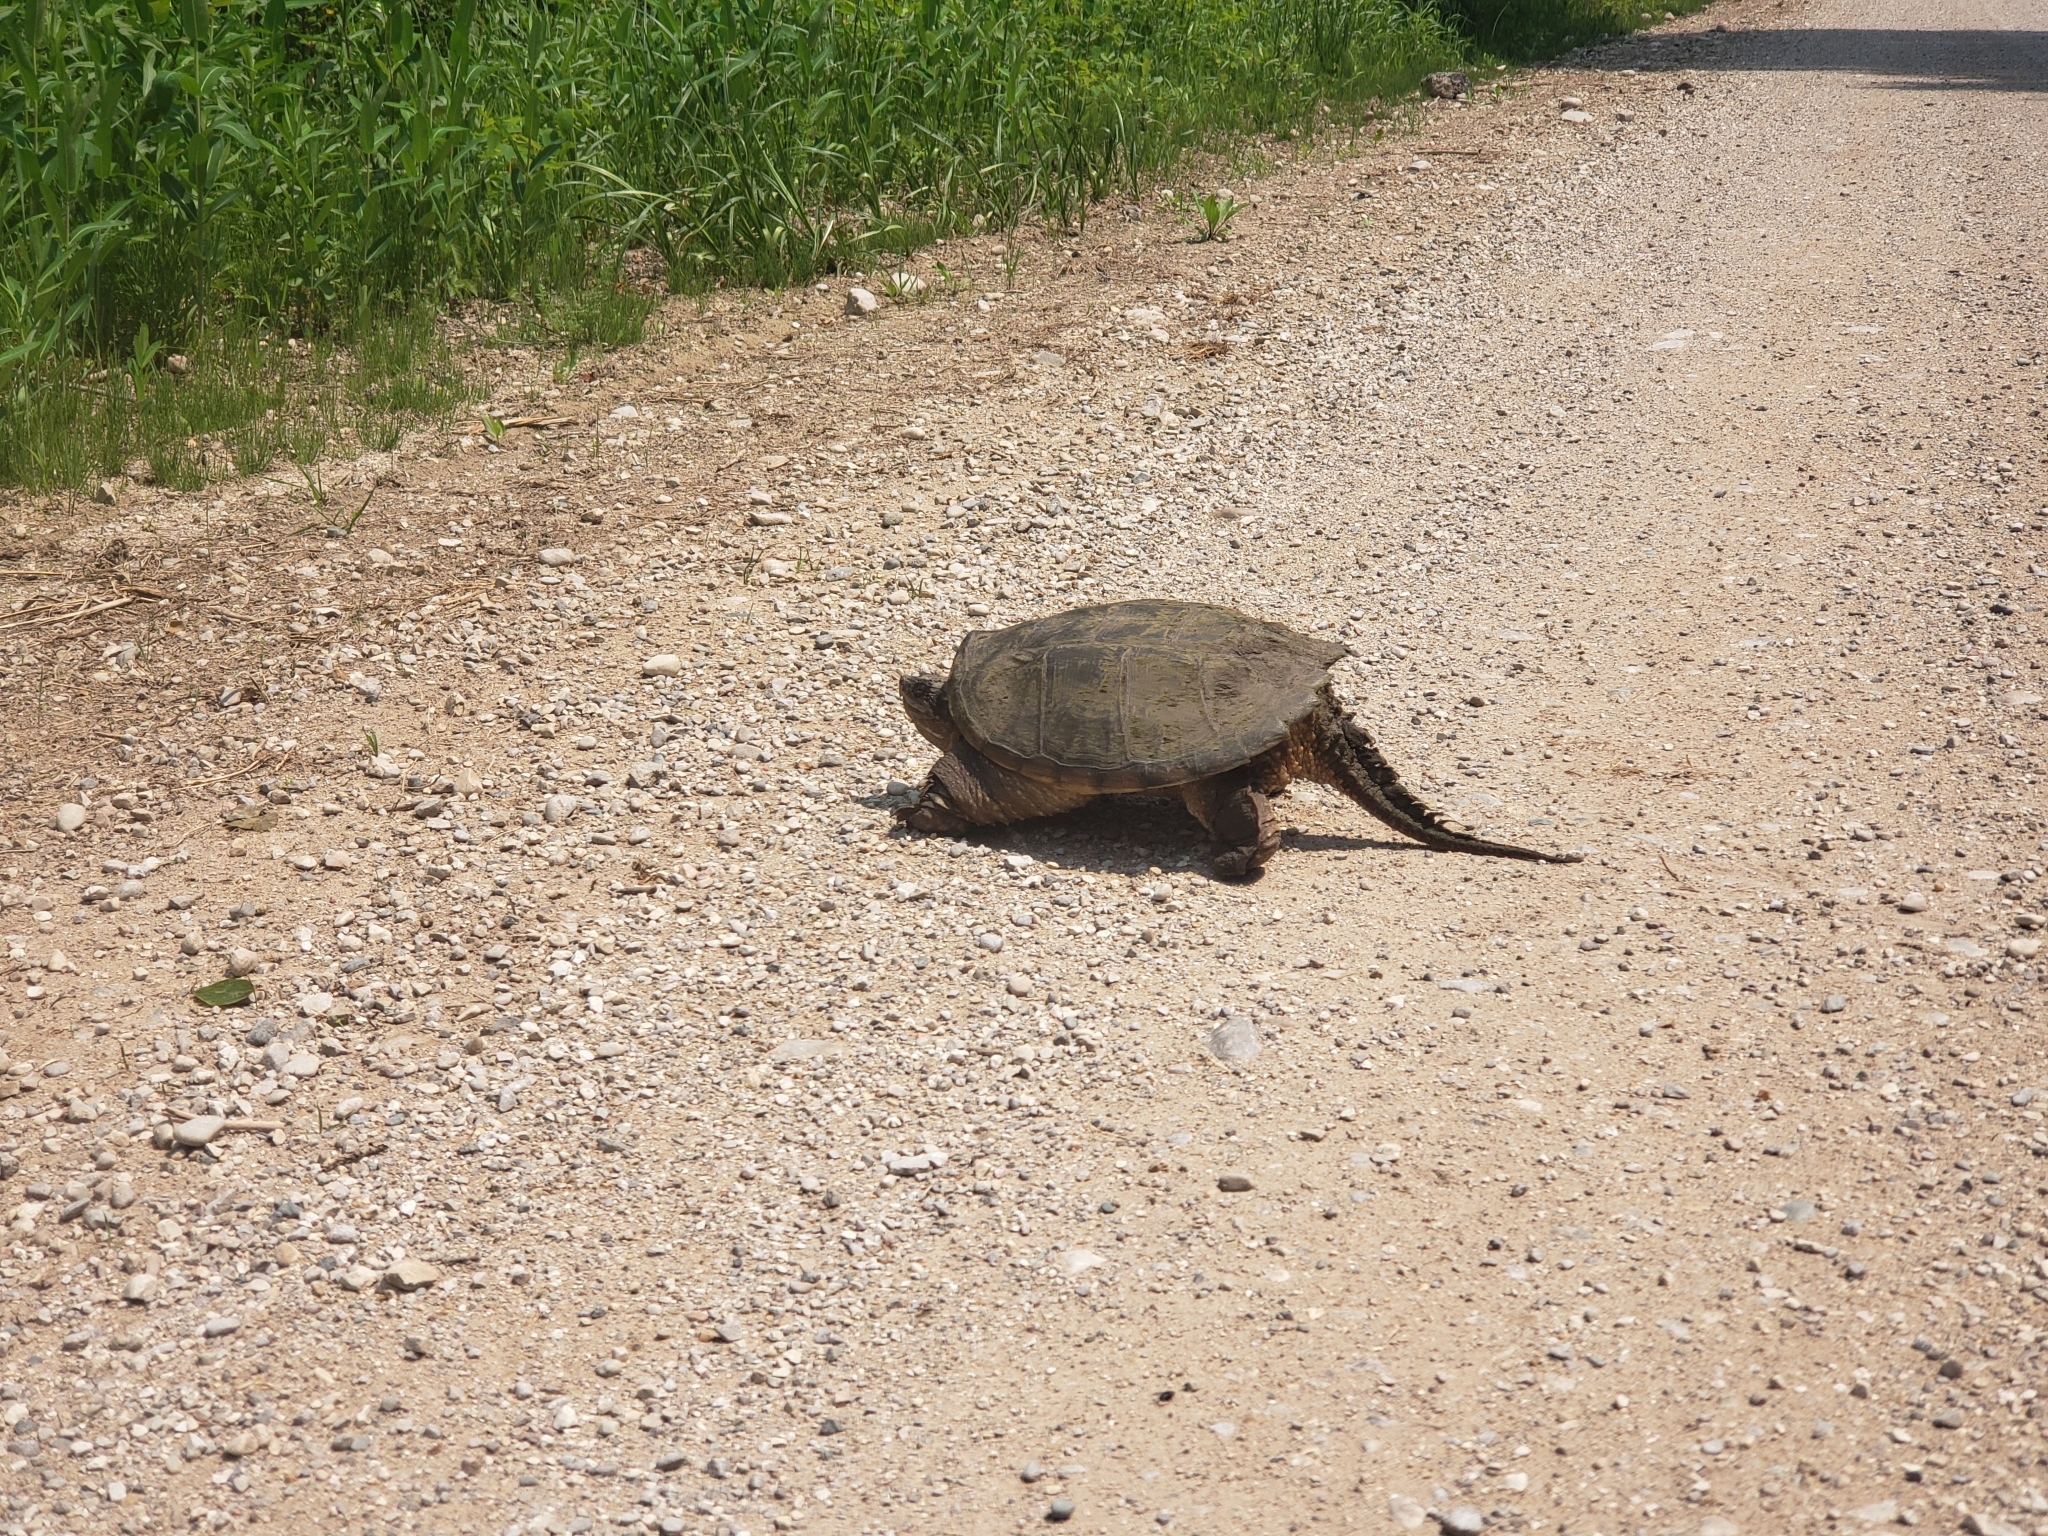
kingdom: Animalia
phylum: Chordata
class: Testudines
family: Chelydridae
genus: Chelydra
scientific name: Chelydra serpentina
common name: Common snapping turtle
